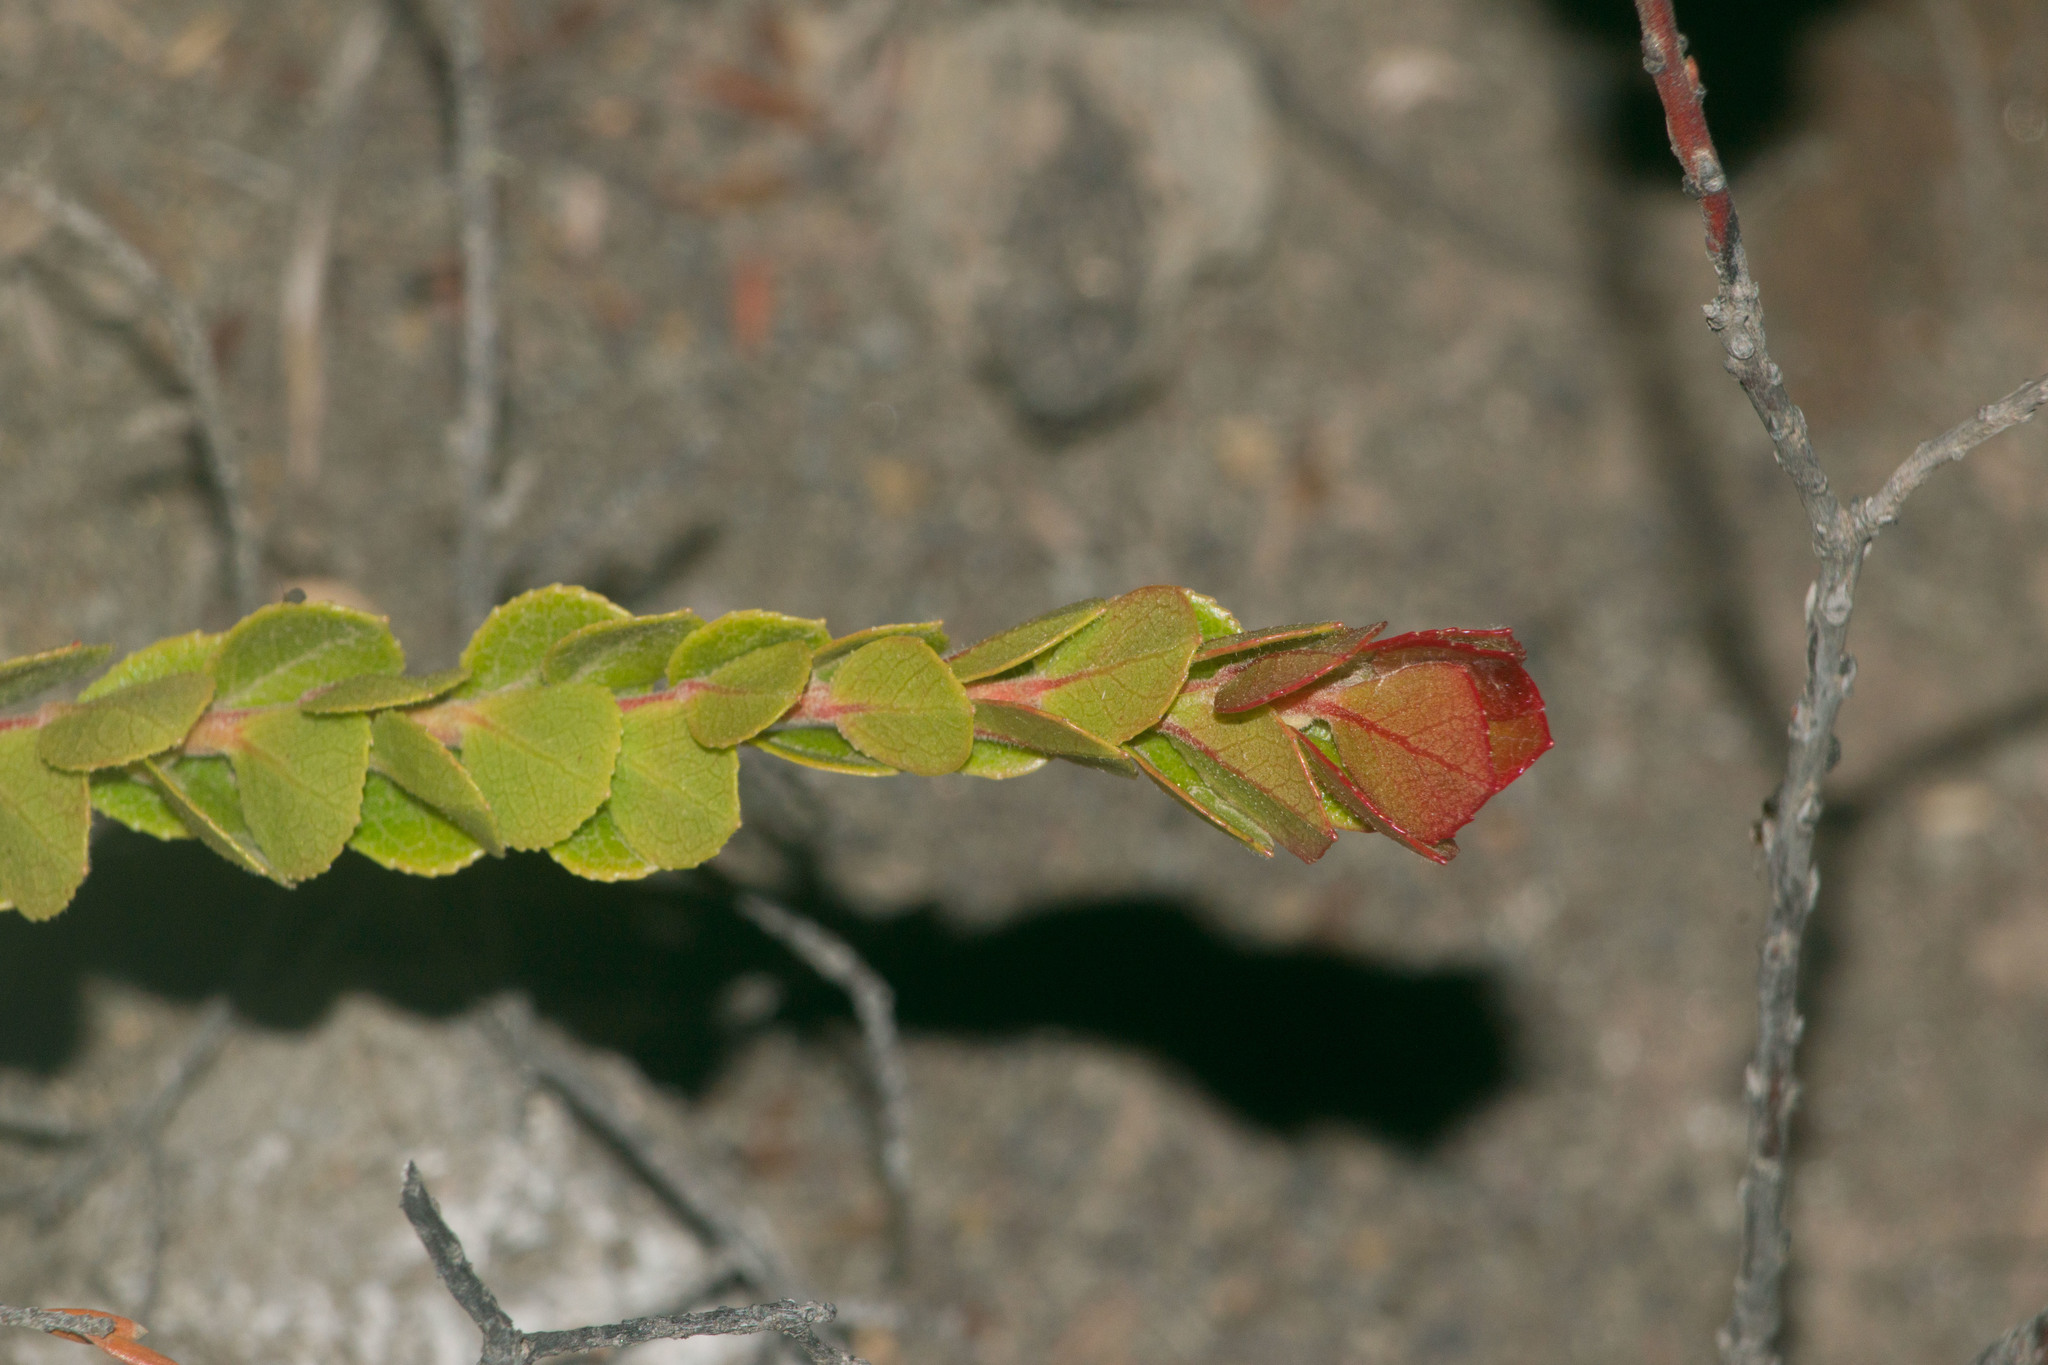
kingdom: Plantae
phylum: Tracheophyta
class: Magnoliopsida
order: Ericales
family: Ericaceae
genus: Vaccinium
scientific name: Vaccinium reticulatum
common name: Ohelo
